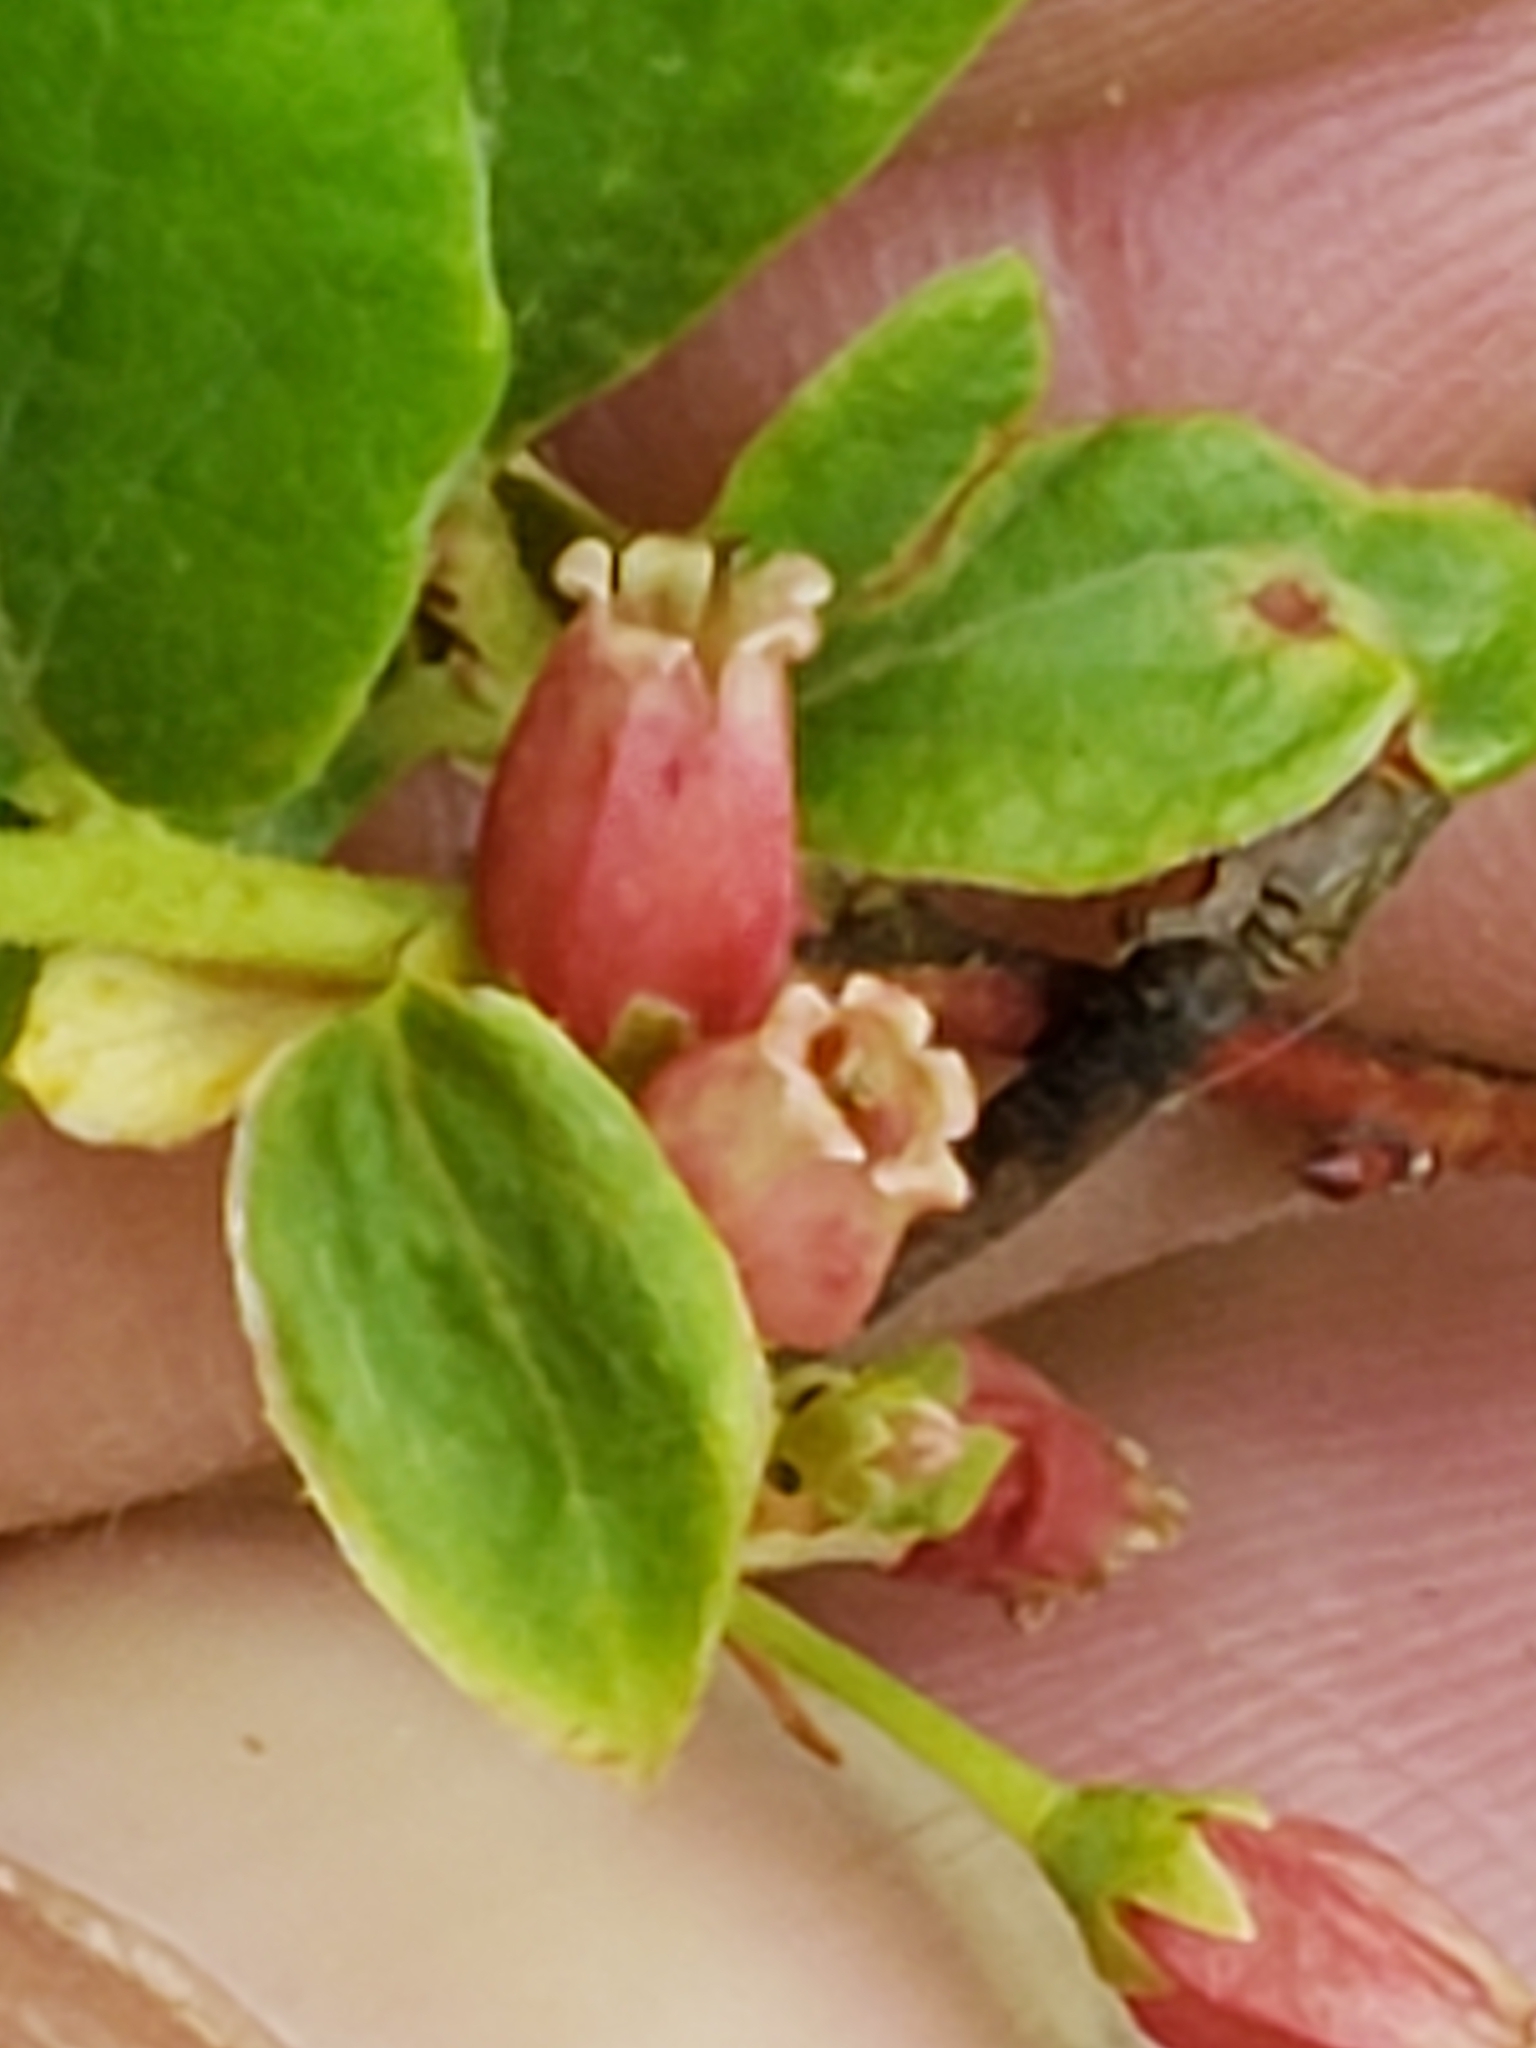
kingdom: Plantae
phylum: Tracheophyta
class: Magnoliopsida
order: Ericales
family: Ericaceae
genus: Gaylussacia
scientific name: Gaylussacia baccata
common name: Black huckleberry
